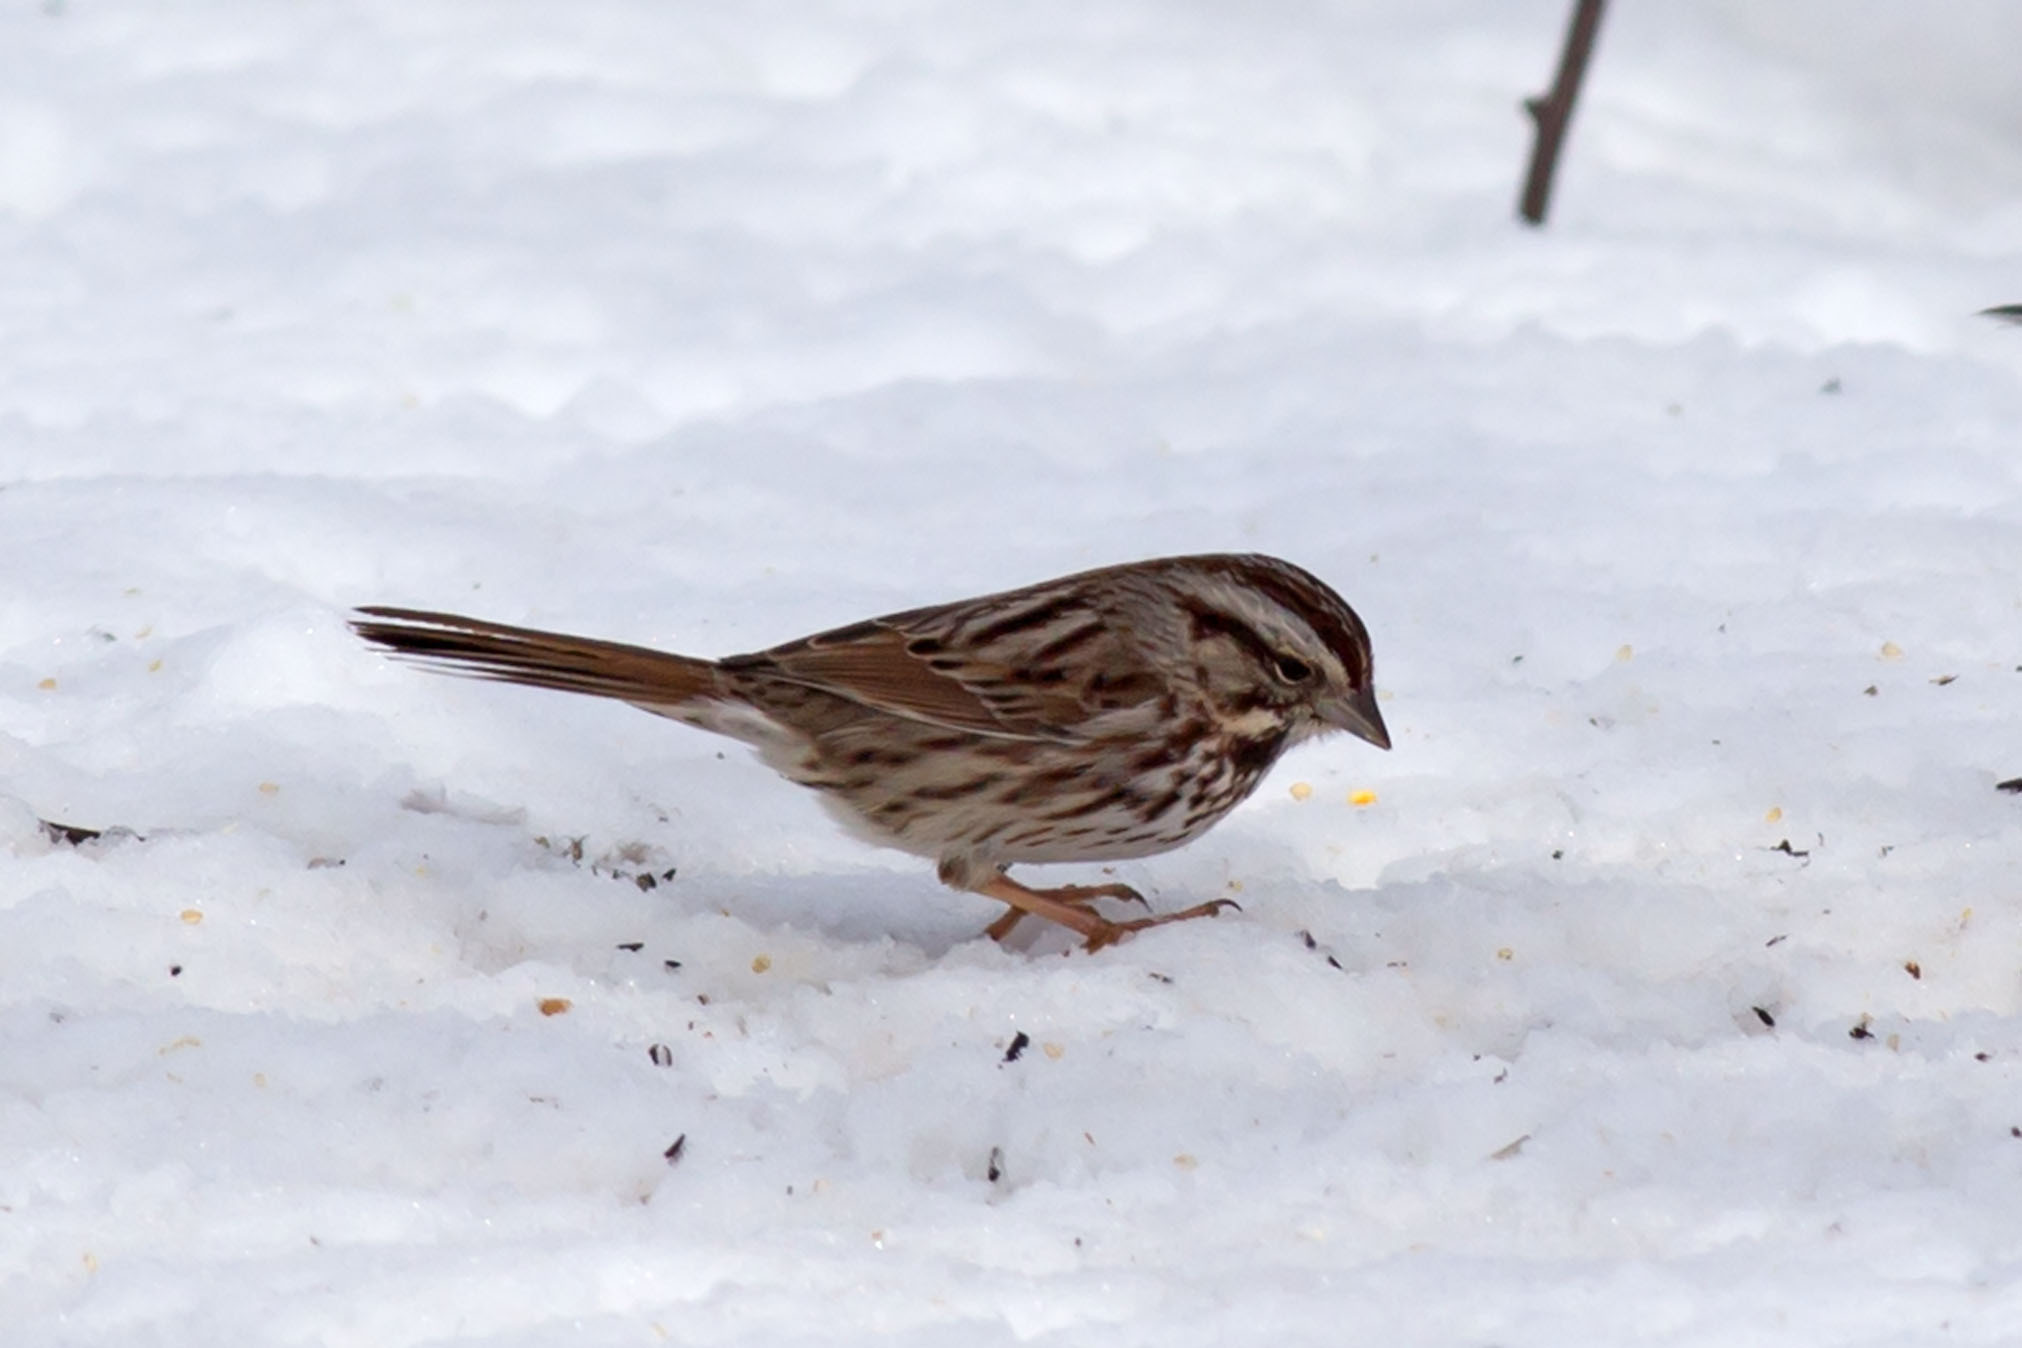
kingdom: Animalia
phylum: Chordata
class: Aves
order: Passeriformes
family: Passerellidae
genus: Melospiza
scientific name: Melospiza melodia
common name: Song sparrow
